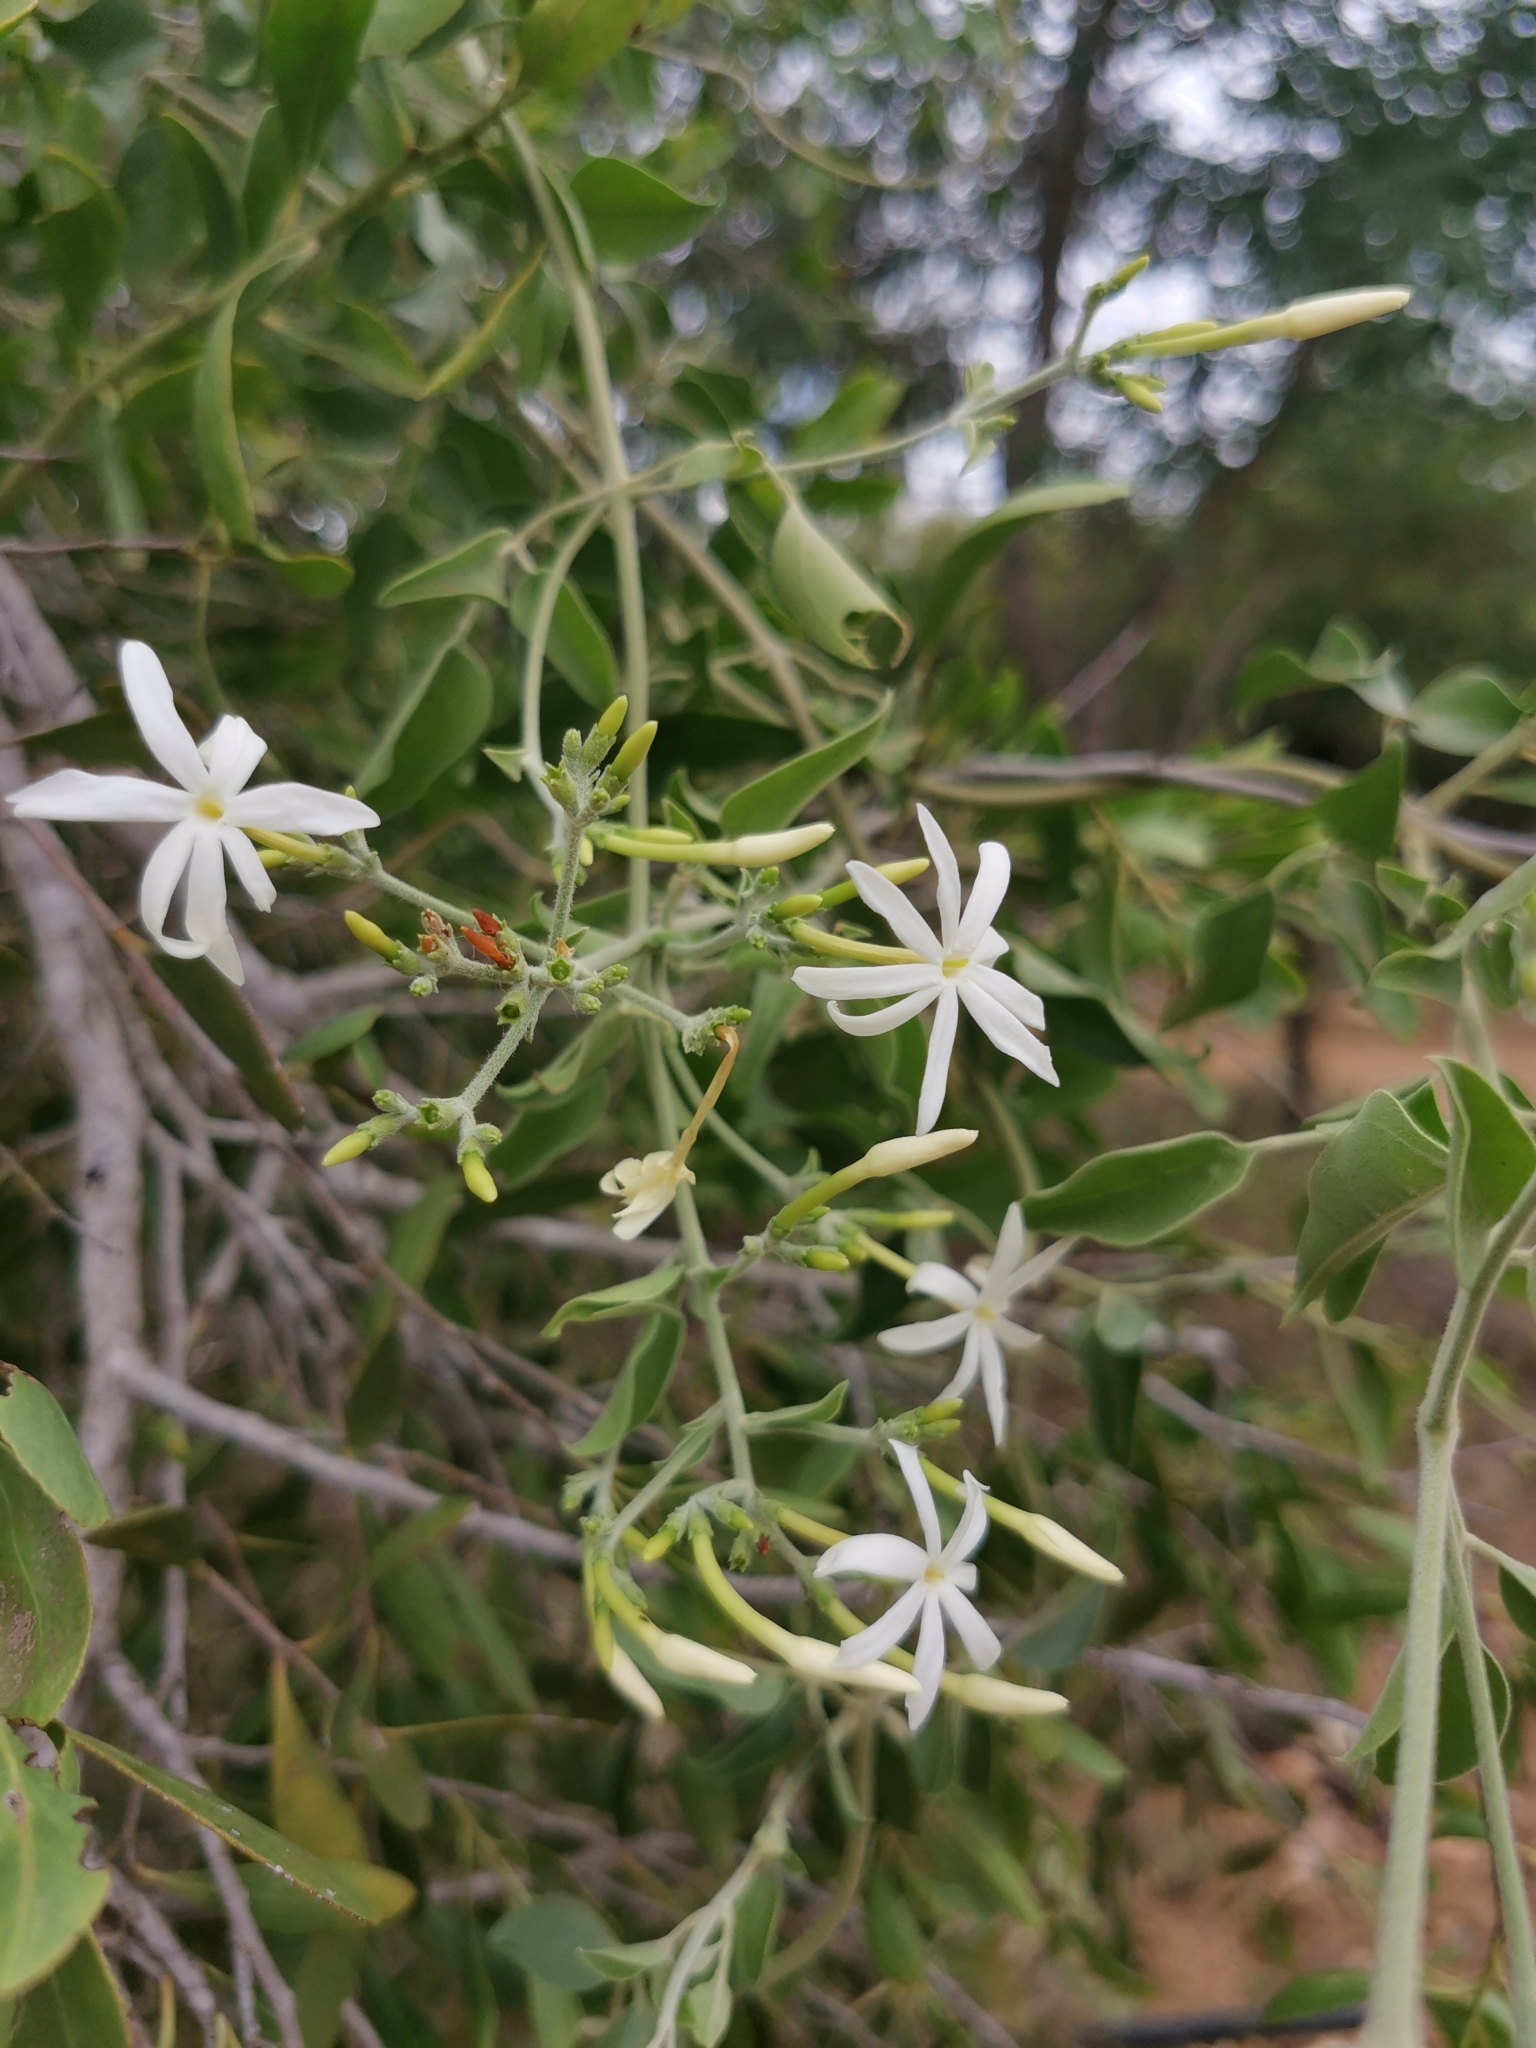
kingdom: Plantae
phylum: Tracheophyta
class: Magnoliopsida
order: Lamiales
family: Oleaceae
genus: Jasminum
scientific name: Jasminum fluminense
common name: Brazilian jasmine
